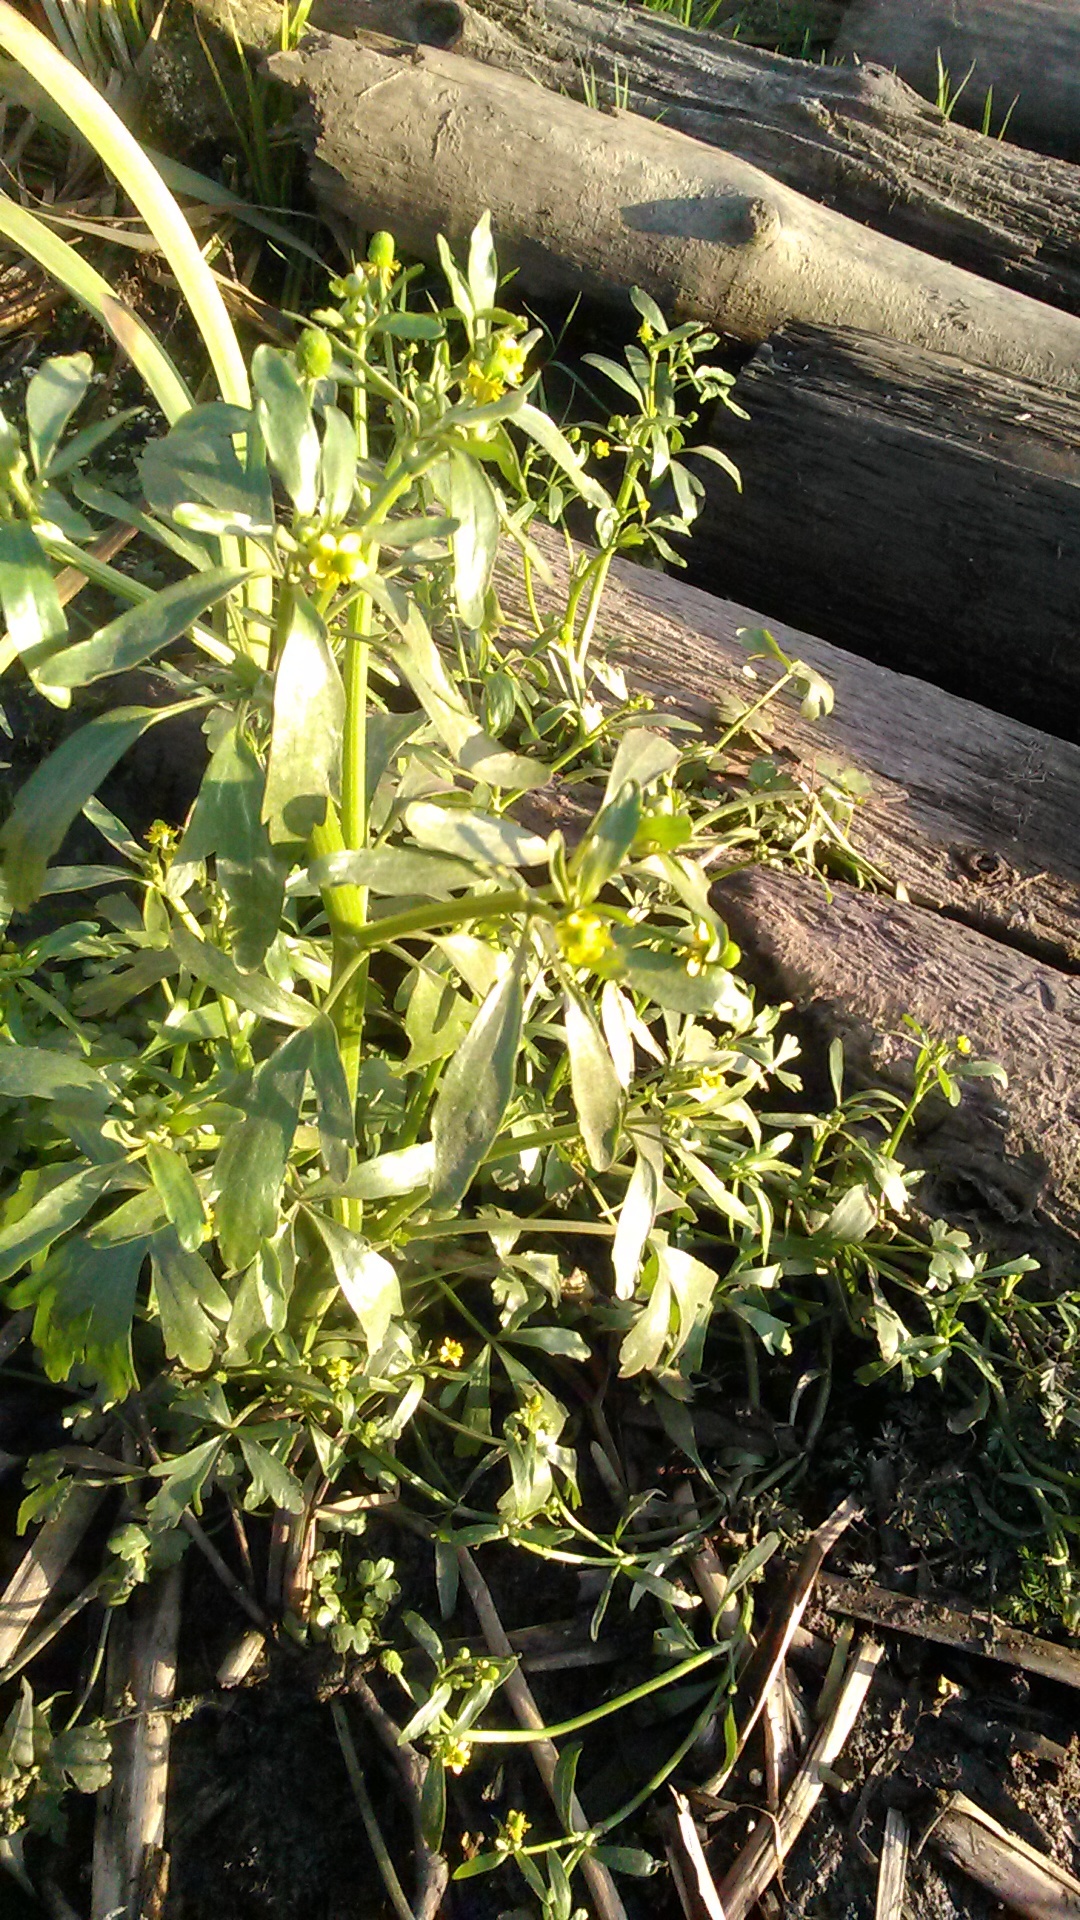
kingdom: Plantae
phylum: Tracheophyta
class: Magnoliopsida
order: Ranunculales
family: Ranunculaceae
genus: Ranunculus
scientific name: Ranunculus sceleratus
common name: Celery-leaved buttercup
